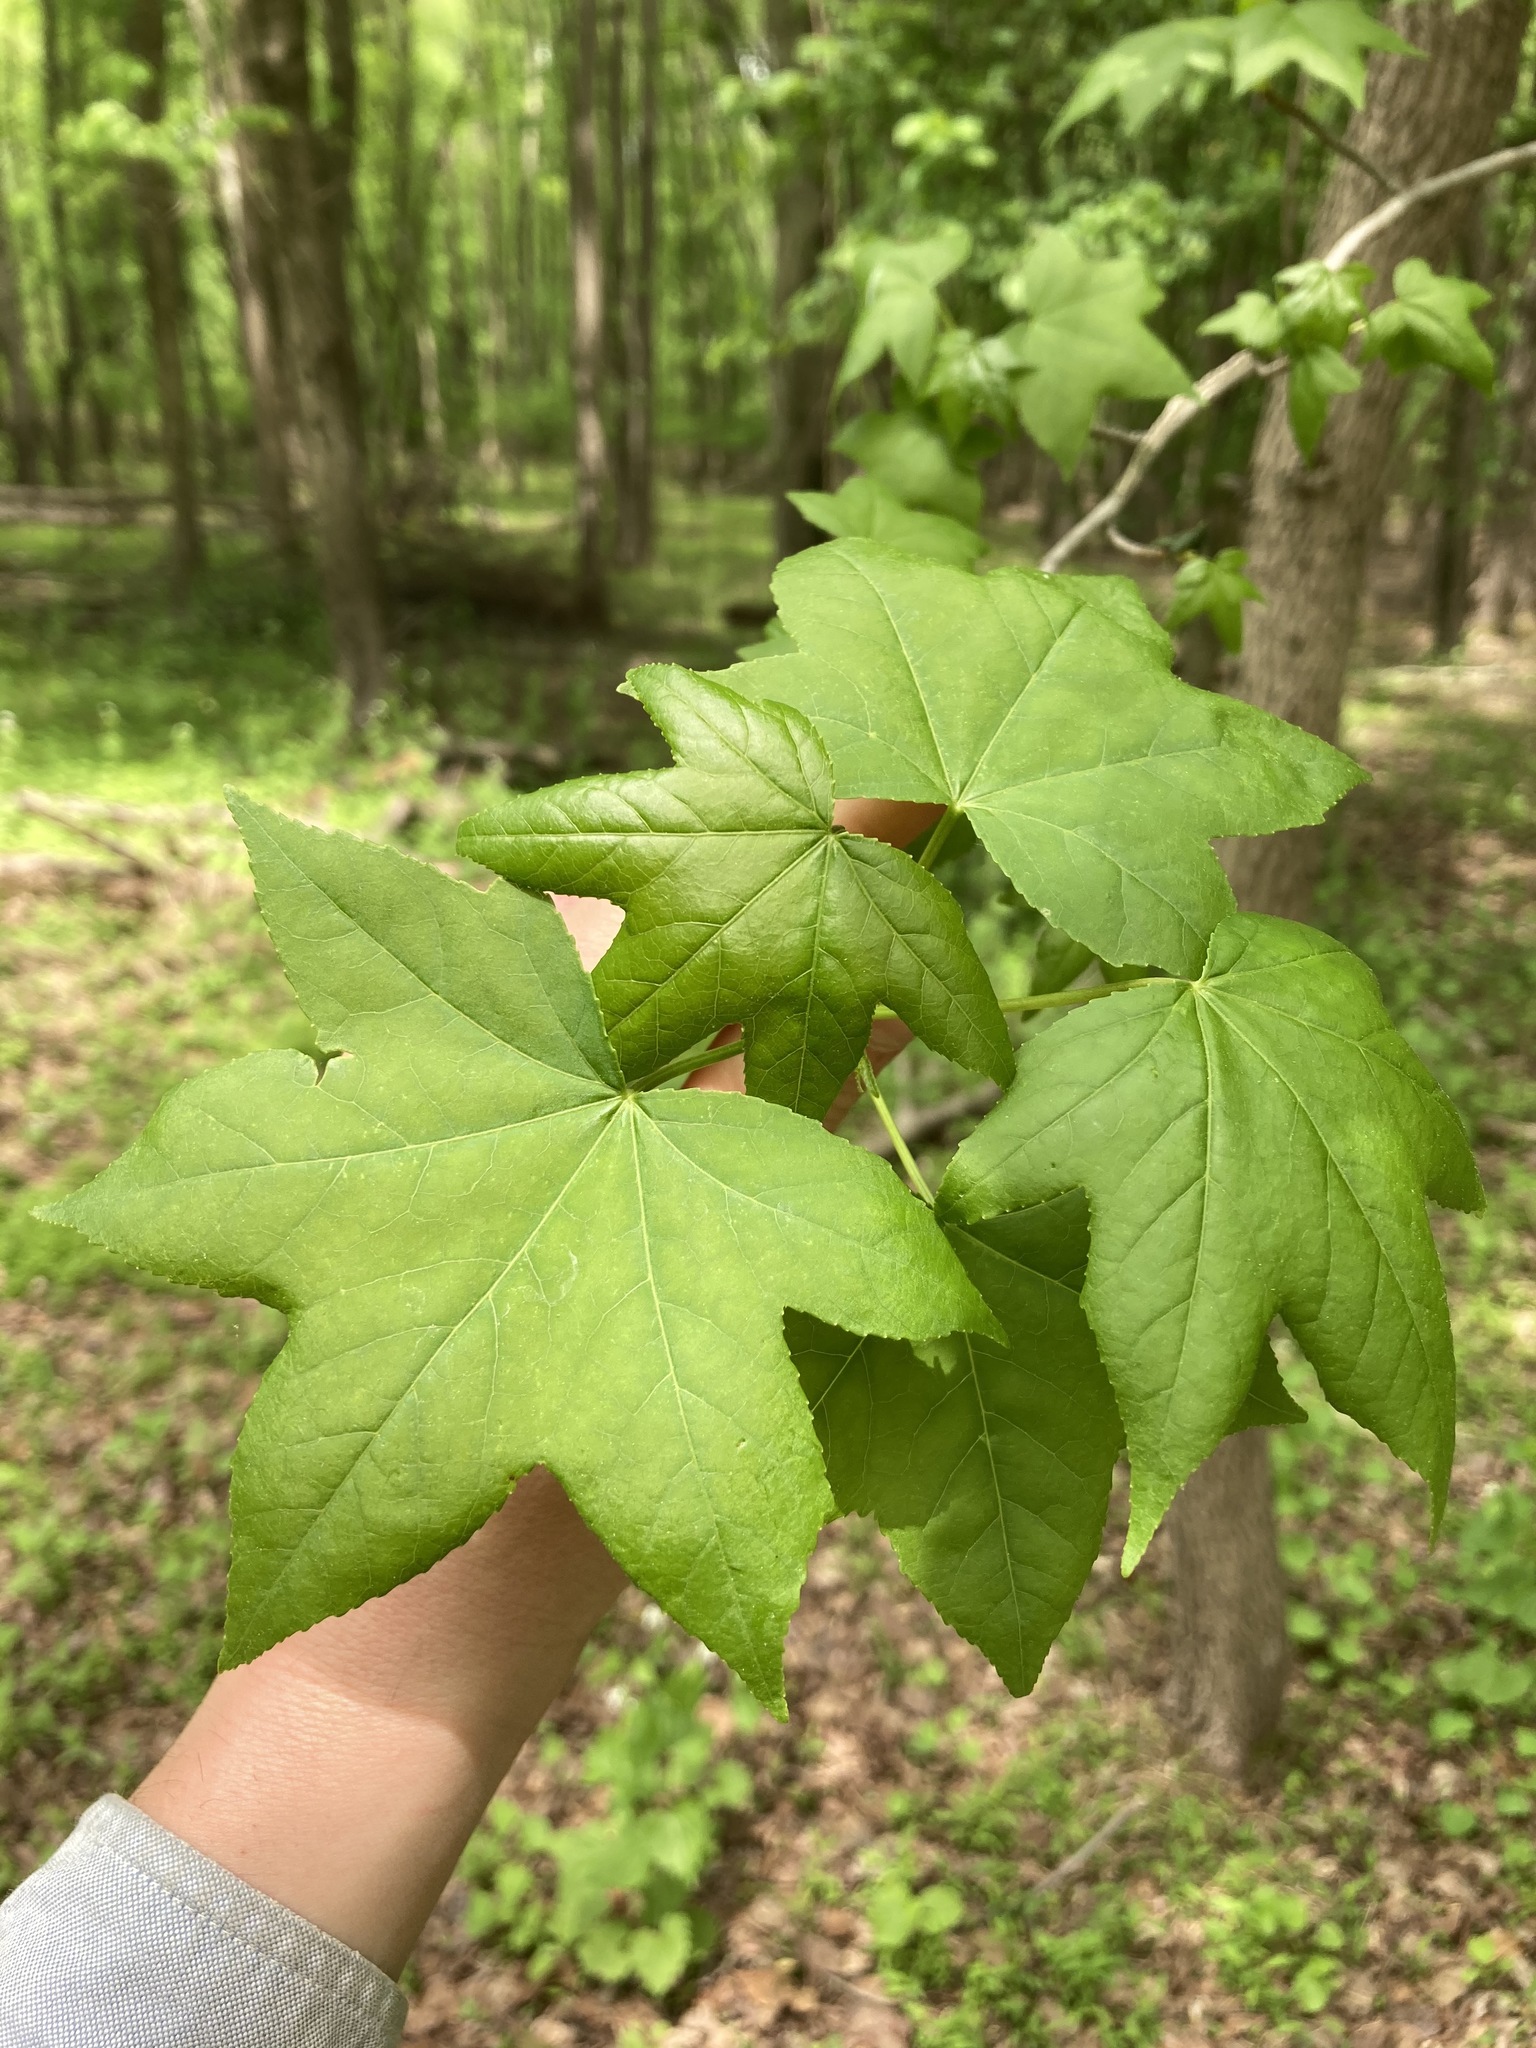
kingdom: Plantae
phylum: Tracheophyta
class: Magnoliopsida
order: Saxifragales
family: Altingiaceae
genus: Liquidambar
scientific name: Liquidambar styraciflua
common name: Sweet gum
